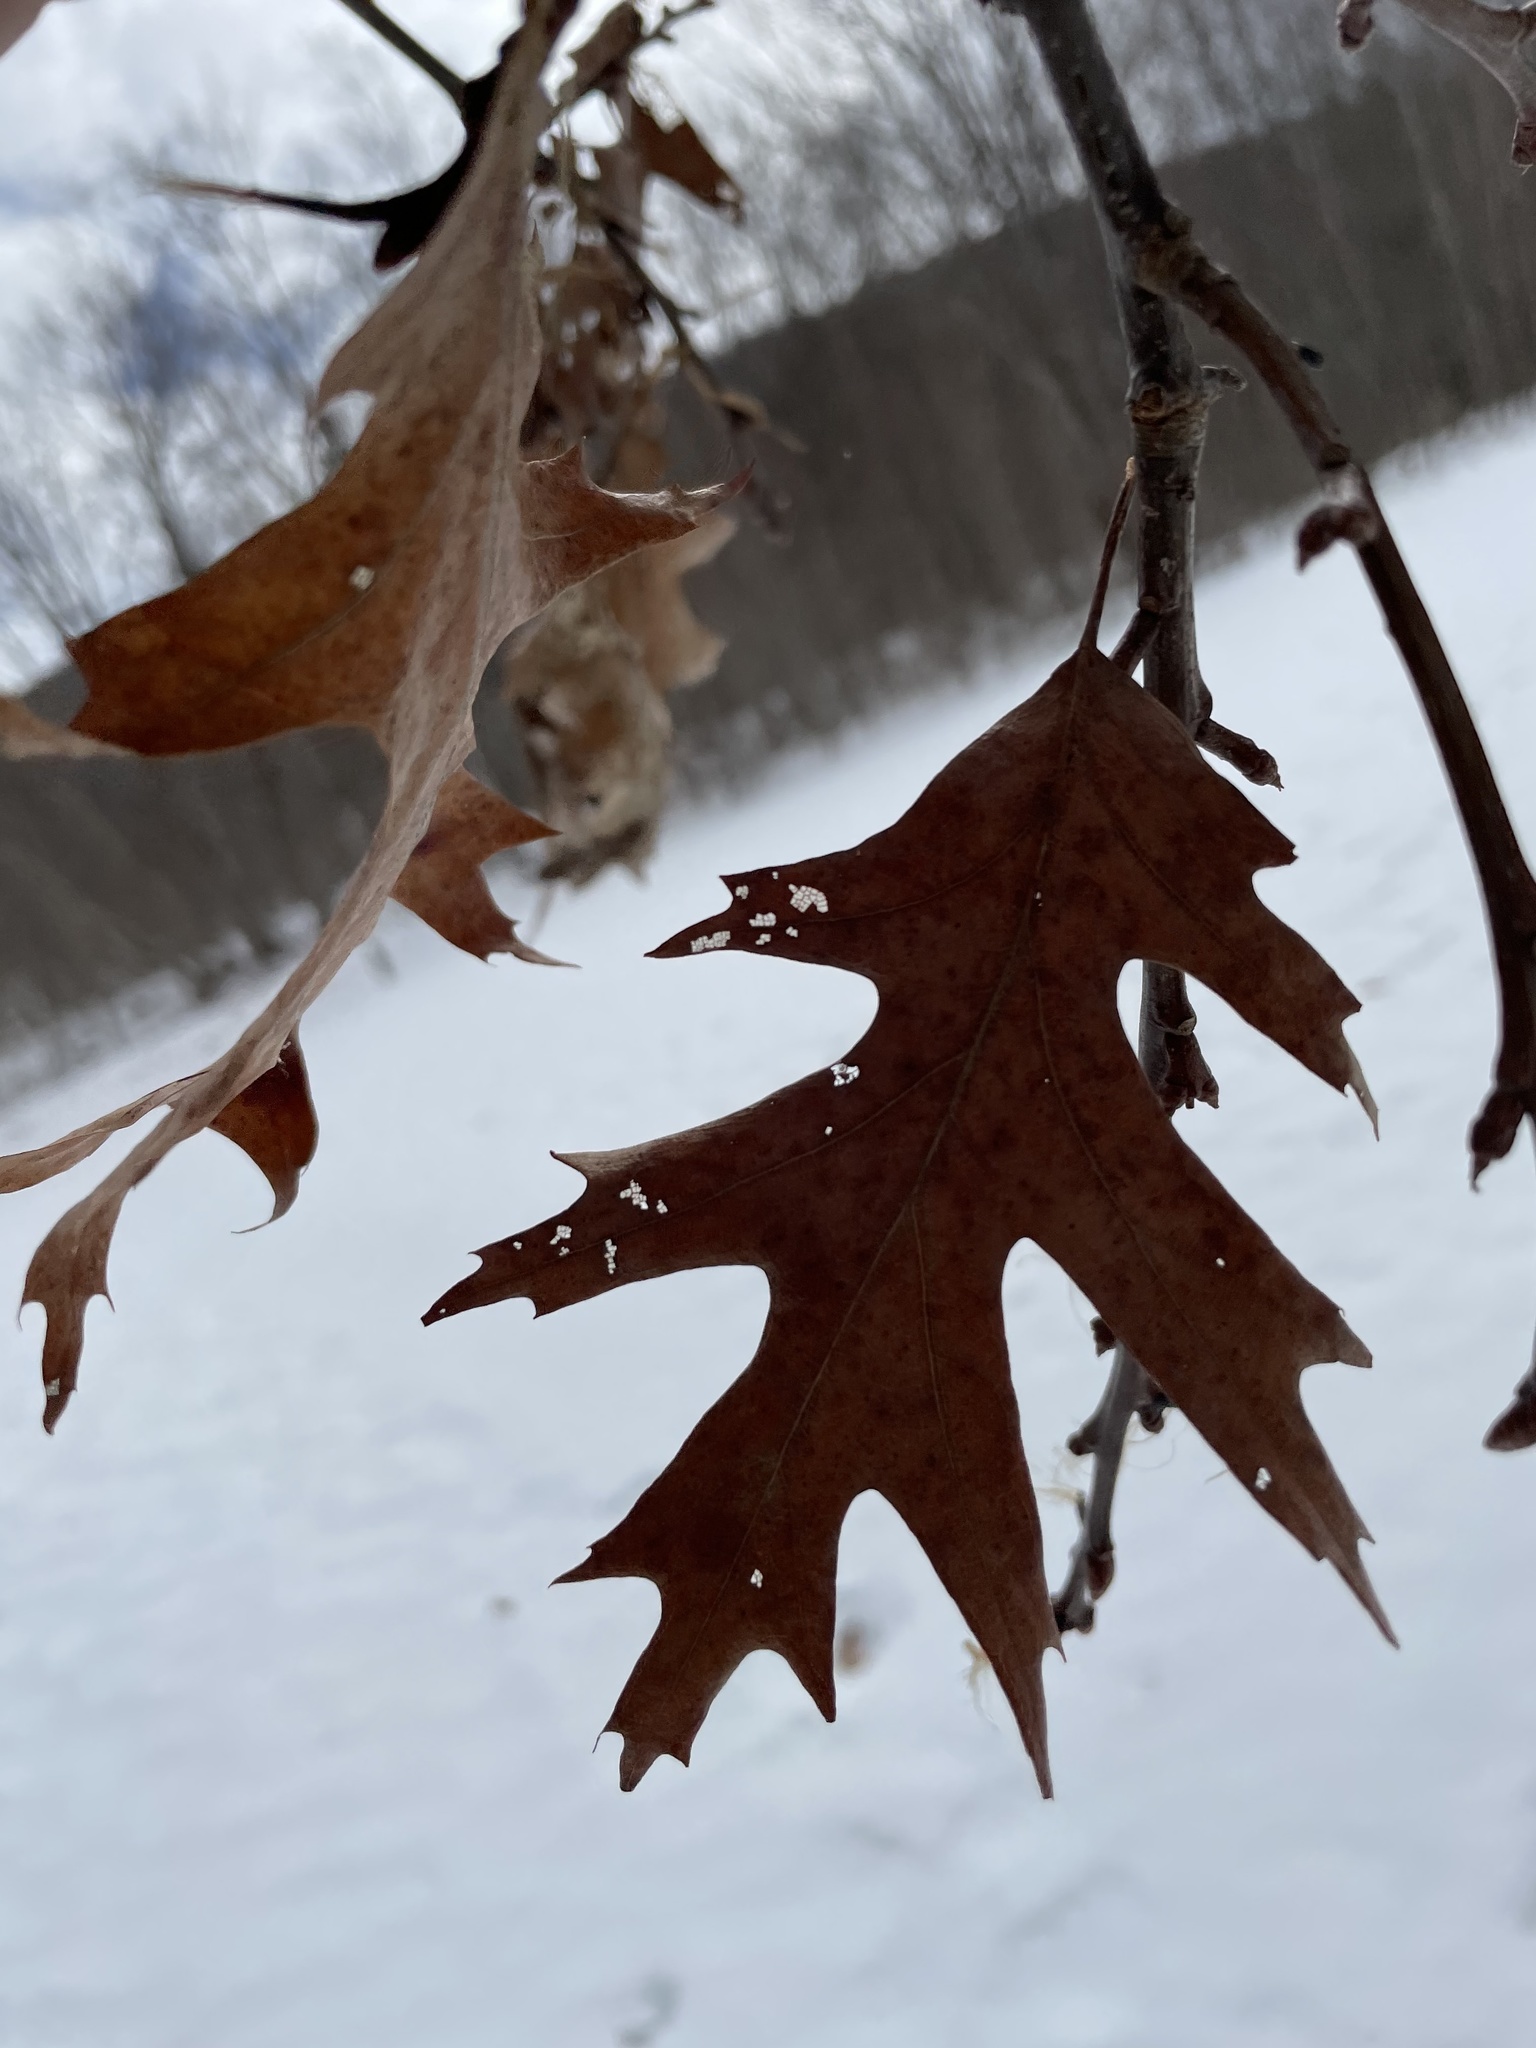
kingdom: Plantae
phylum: Tracheophyta
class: Magnoliopsida
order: Fagales
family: Fagaceae
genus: Quercus
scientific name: Quercus rubra
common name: Red oak
